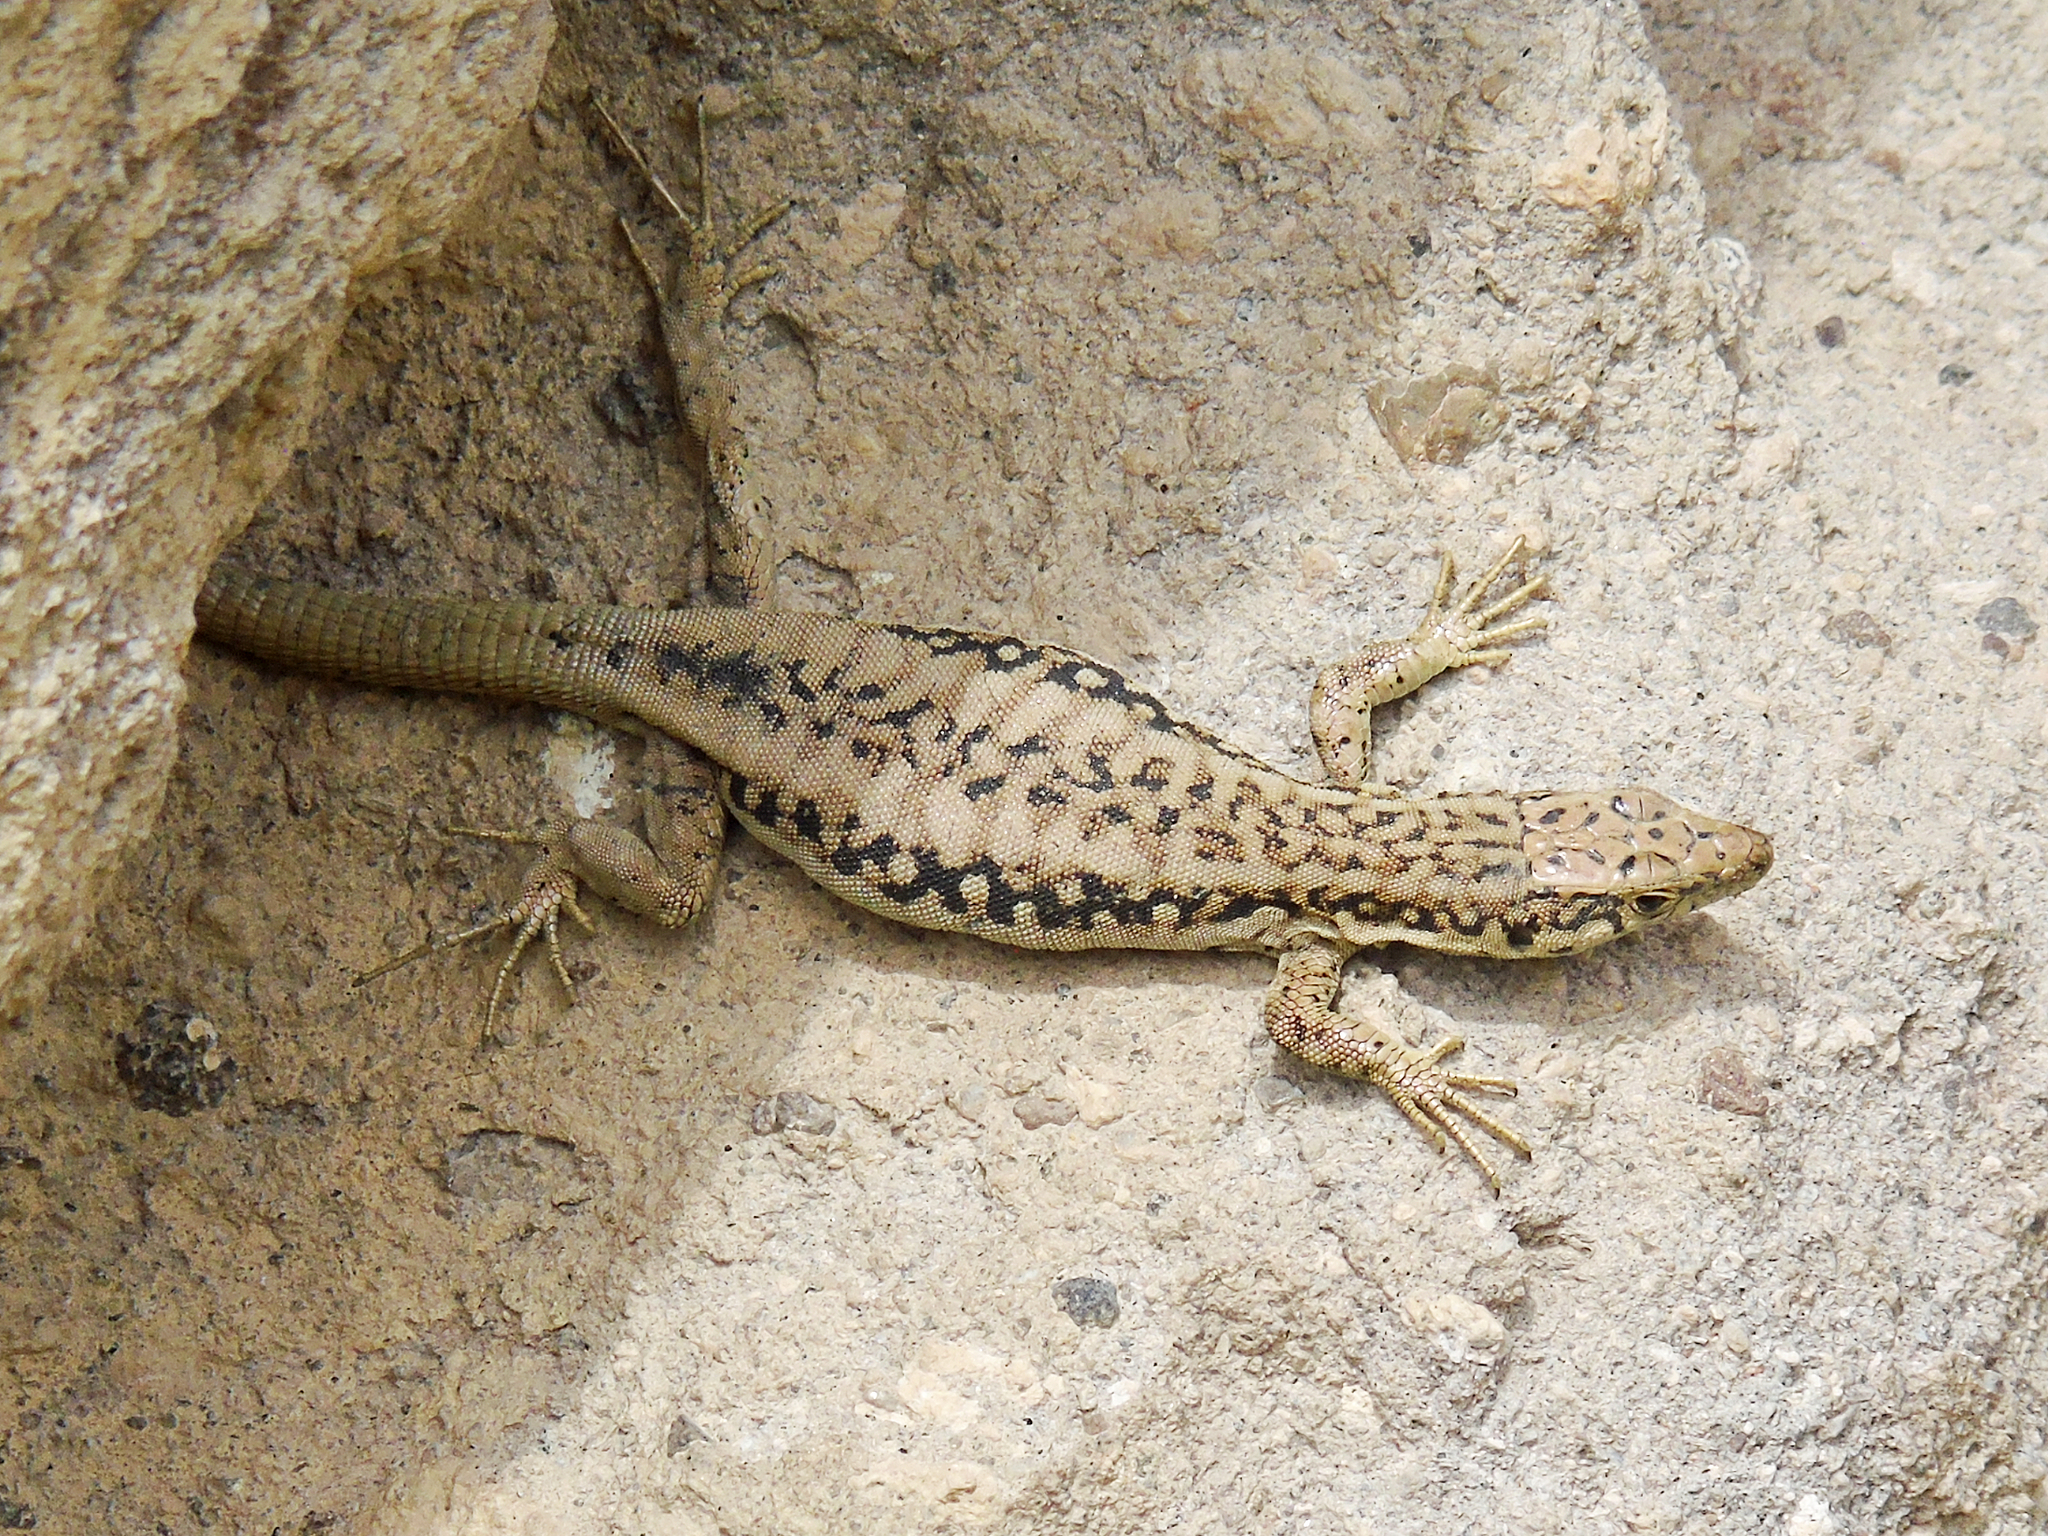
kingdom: Animalia
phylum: Chordata
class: Squamata
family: Lacertidae
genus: Apathya
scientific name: Apathya cappadocica
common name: Anatolian lizard
